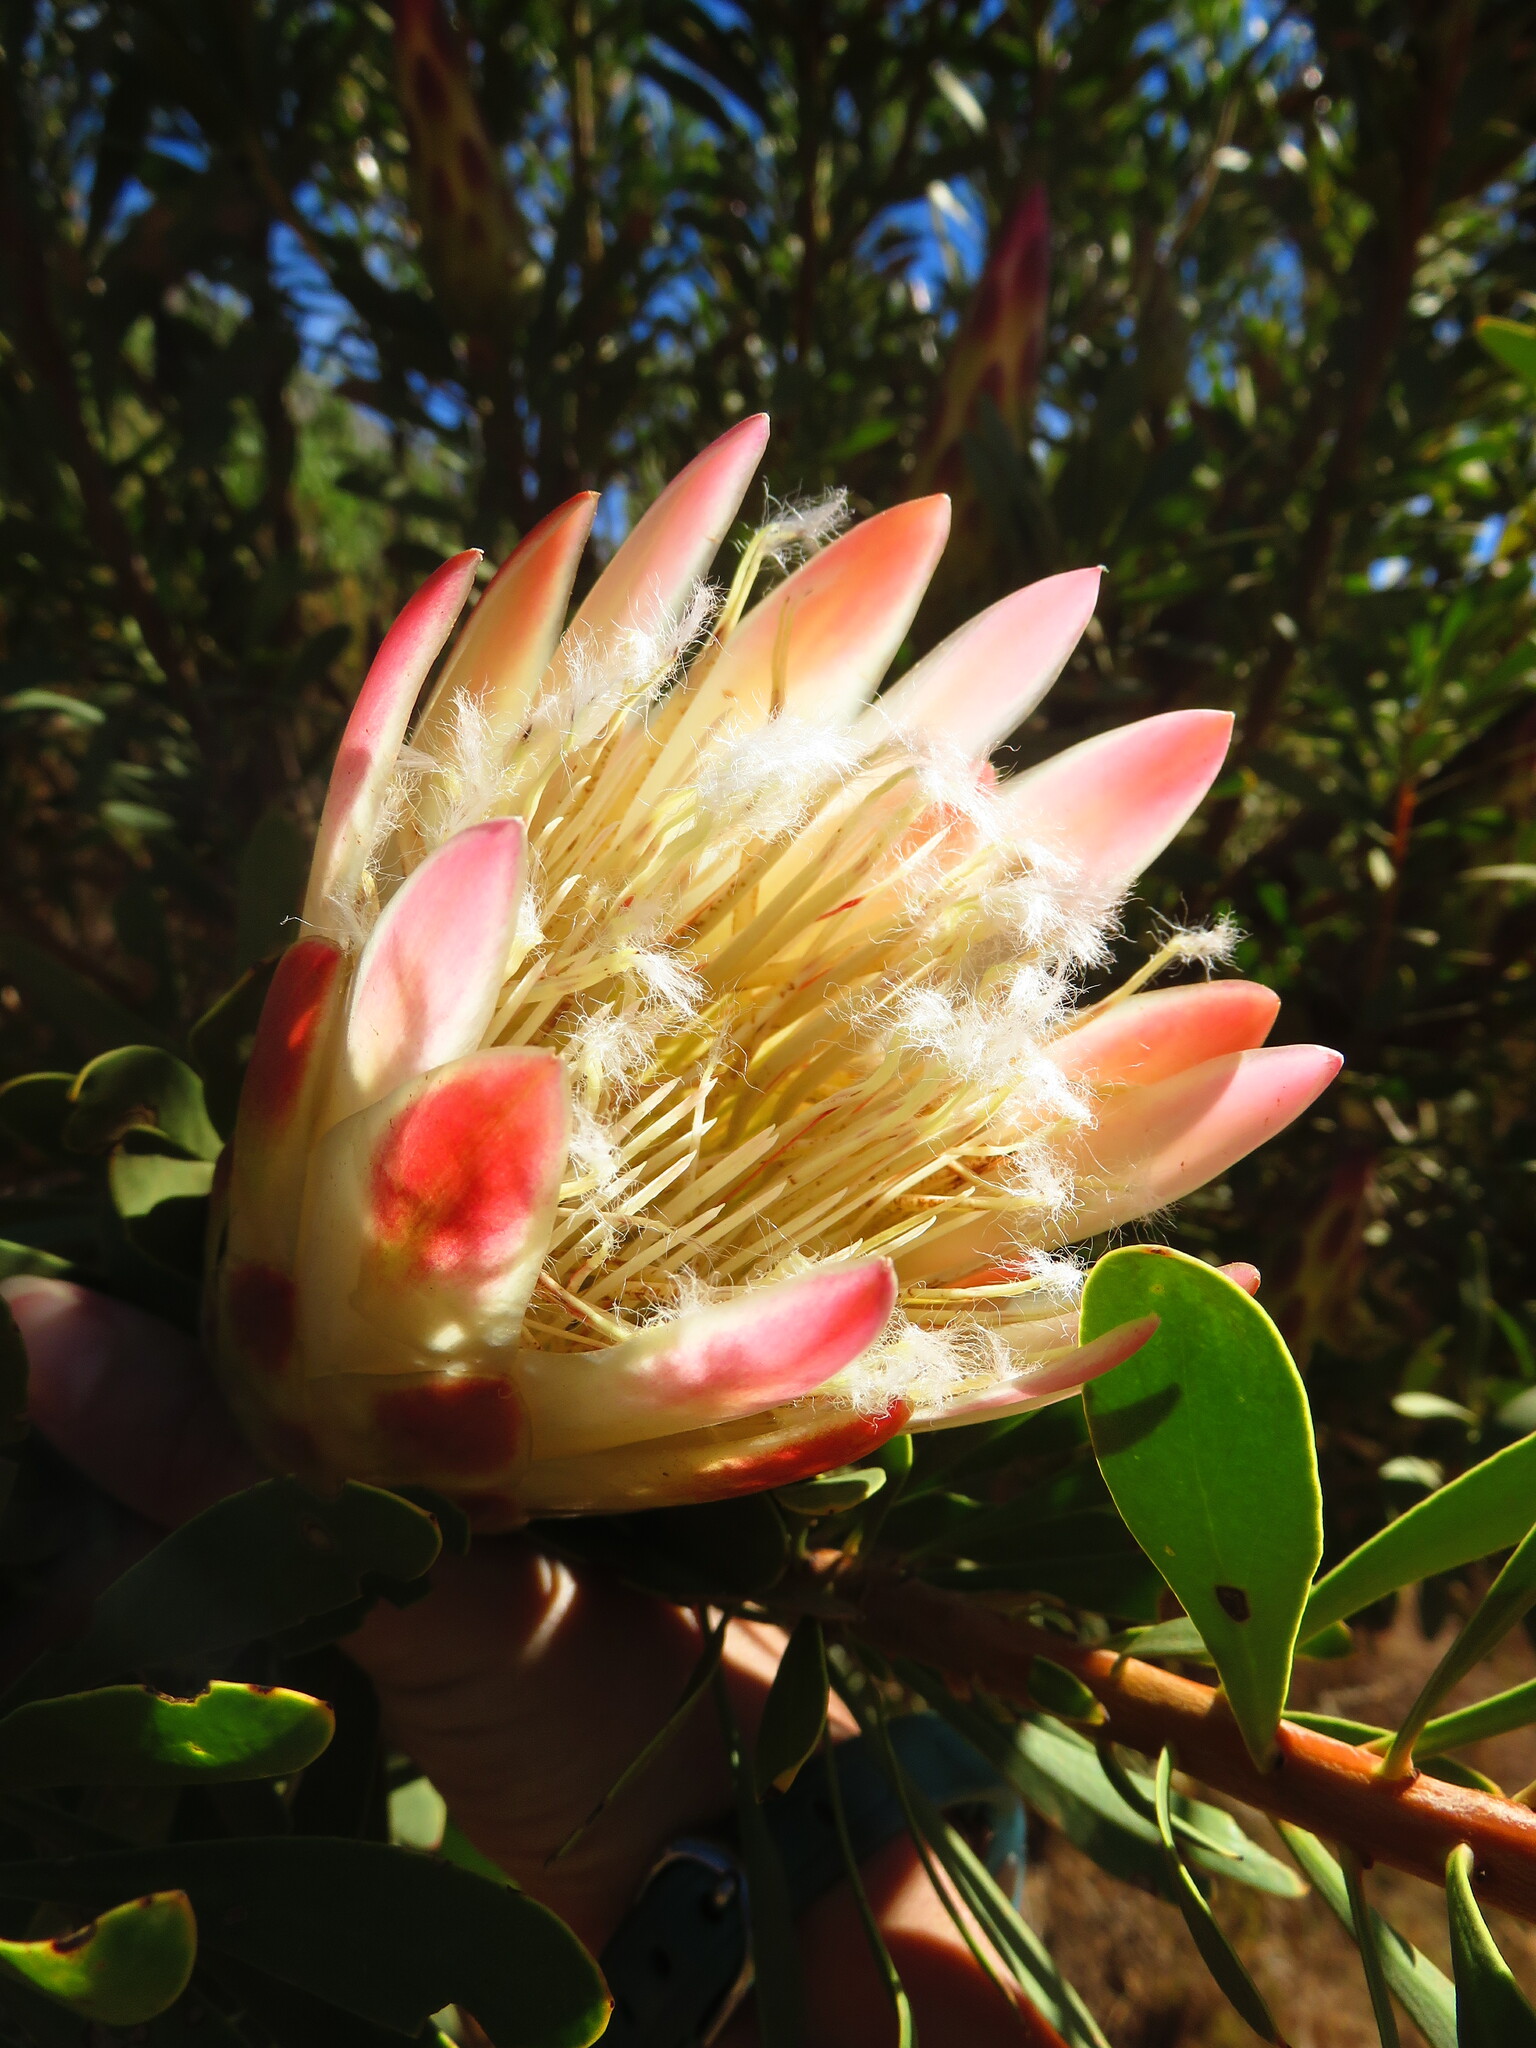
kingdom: Plantae
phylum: Tracheophyta
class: Magnoliopsida
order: Proteales
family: Proteaceae
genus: Protea
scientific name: Protea repens
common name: Sugarbush
